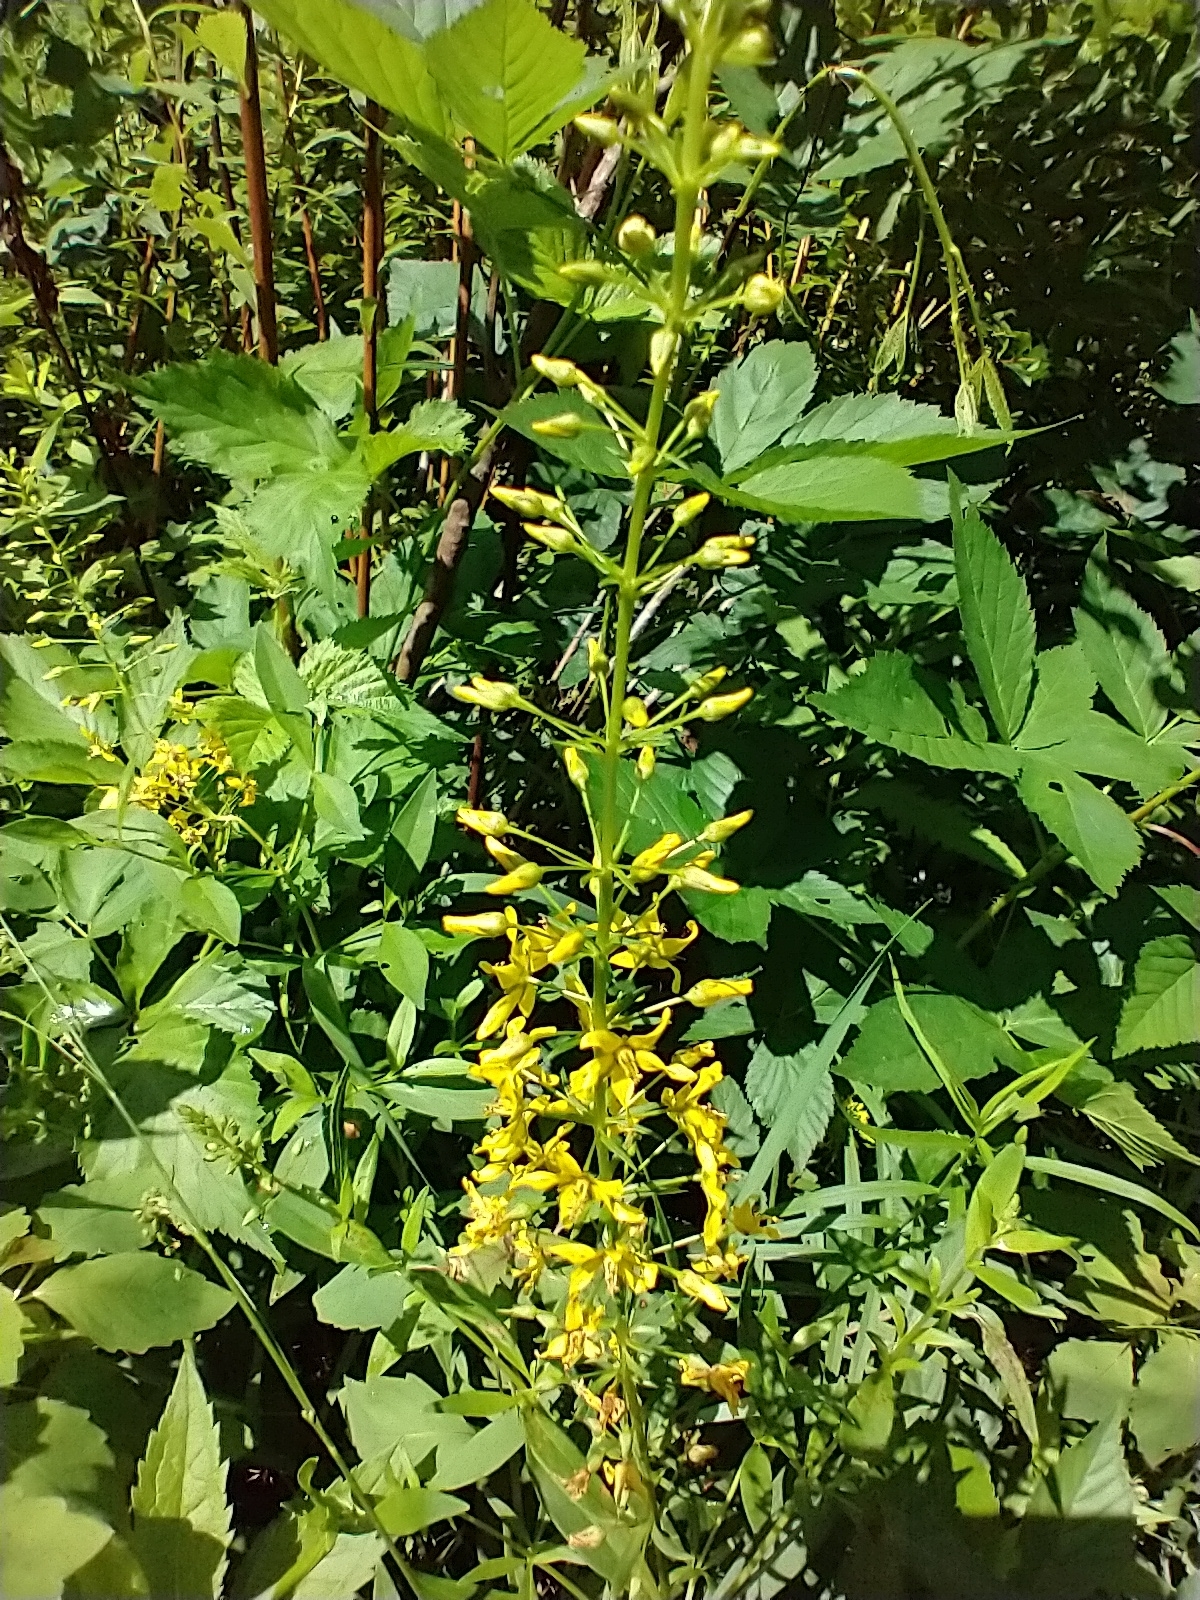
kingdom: Plantae
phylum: Tracheophyta
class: Magnoliopsida
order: Ericales
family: Primulaceae
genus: Lysimachia
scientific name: Lysimachia terrestris
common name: Lake loosestrife
